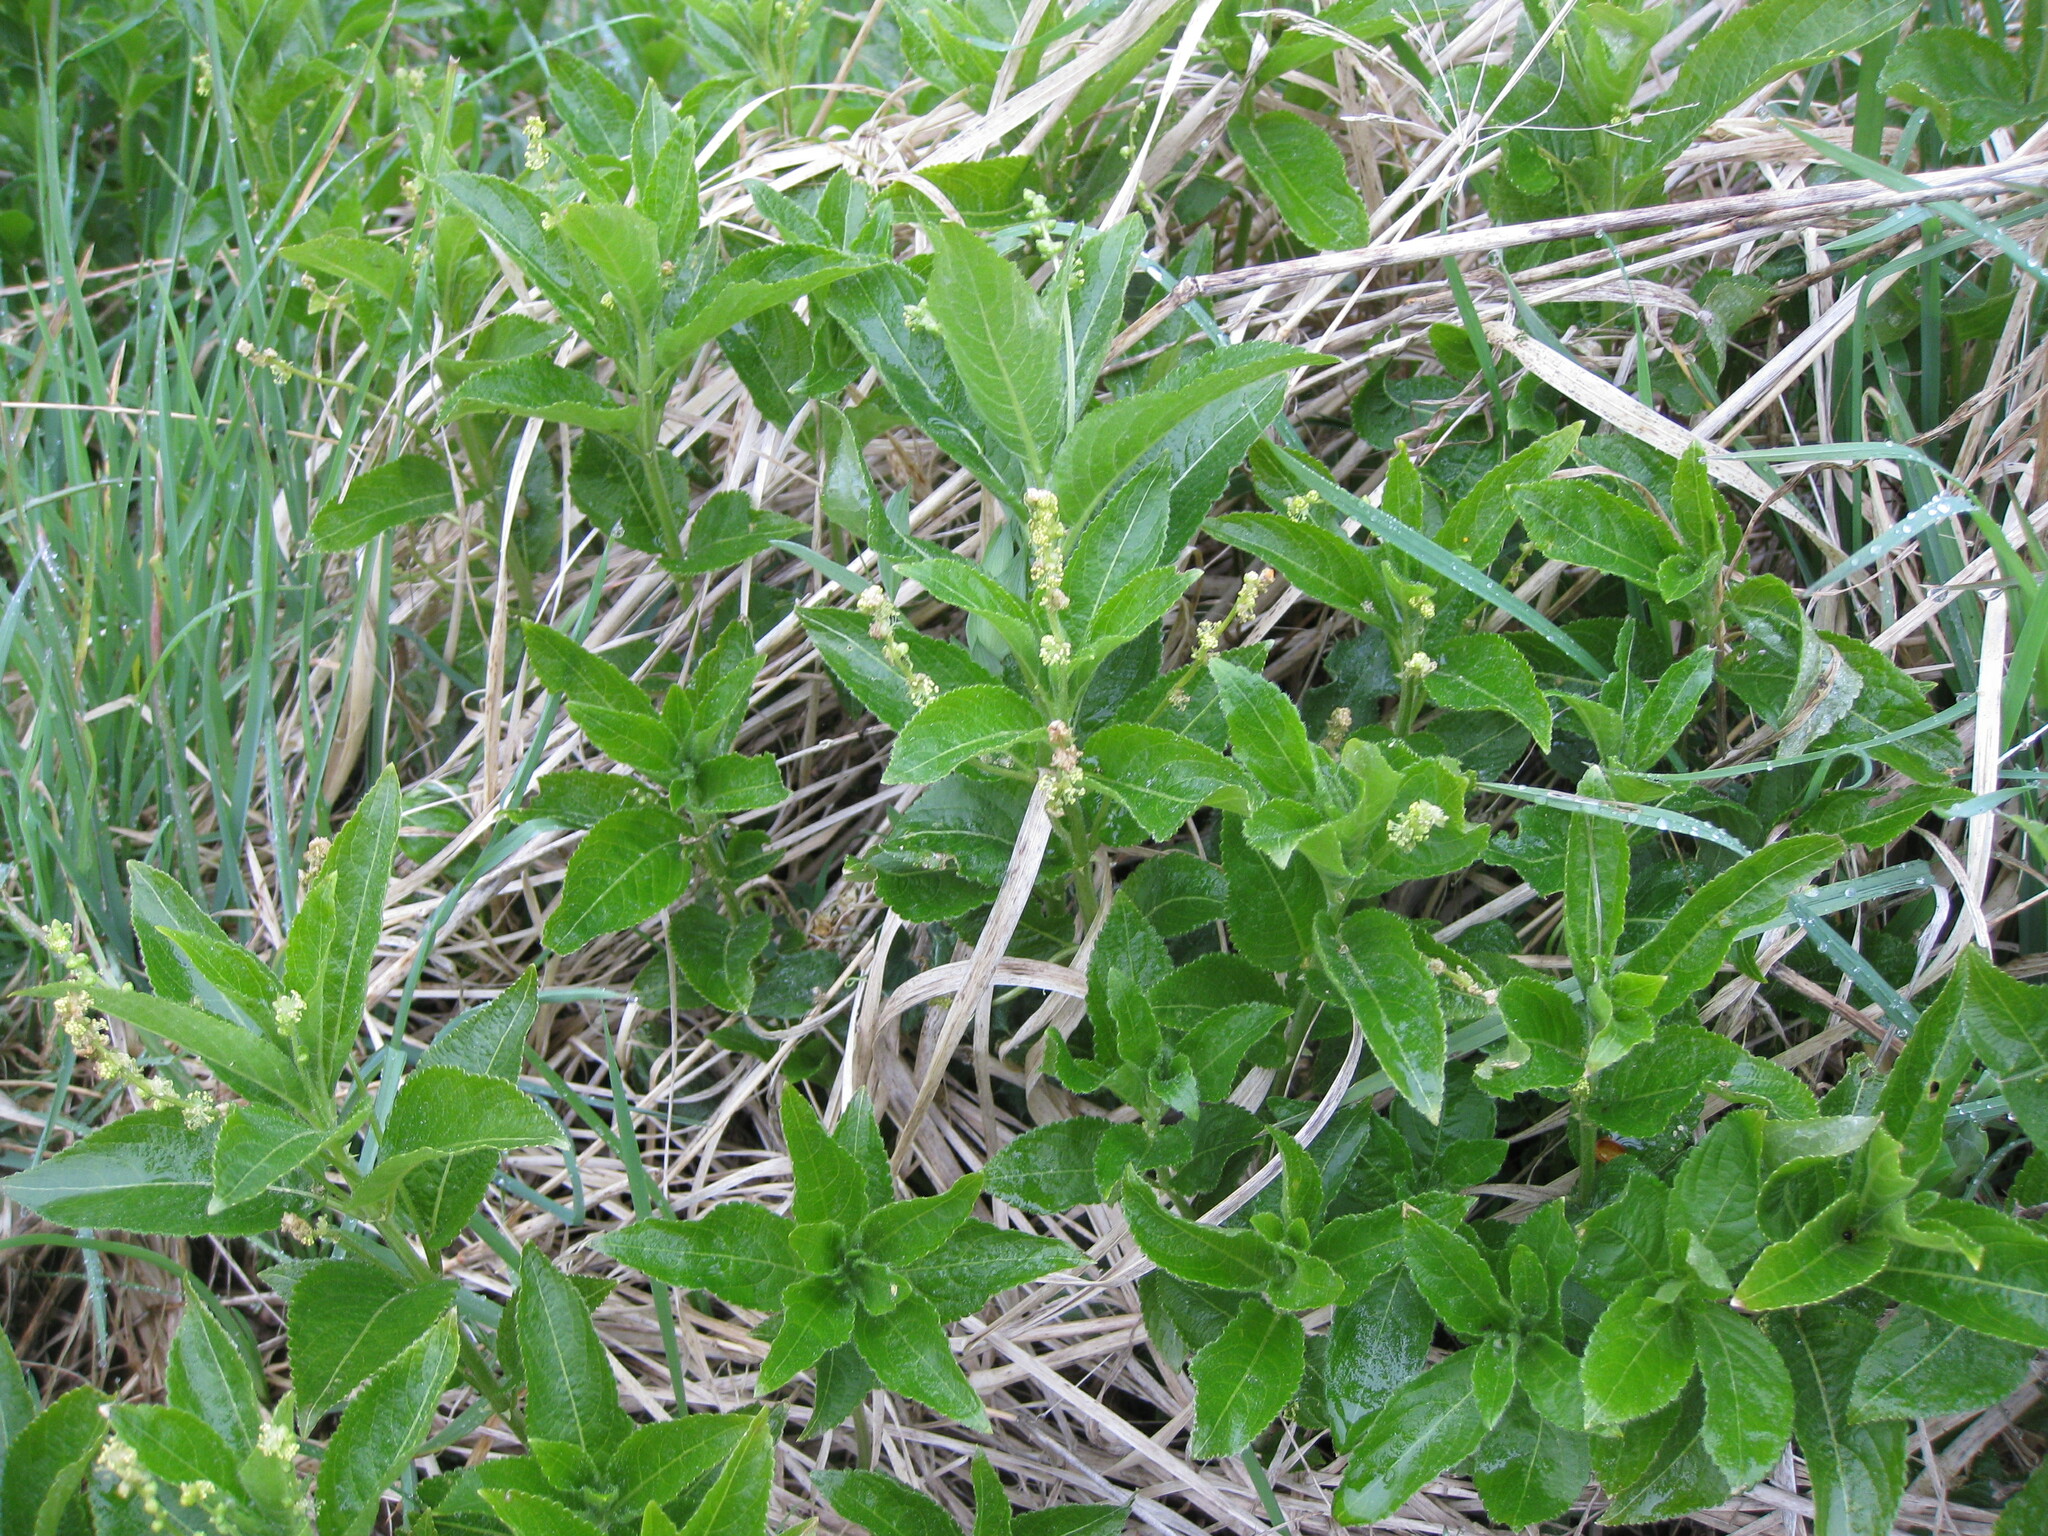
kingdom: Plantae
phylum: Tracheophyta
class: Magnoliopsida
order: Malpighiales
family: Euphorbiaceae
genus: Mercurialis
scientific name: Mercurialis perennis
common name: Dog mercury
